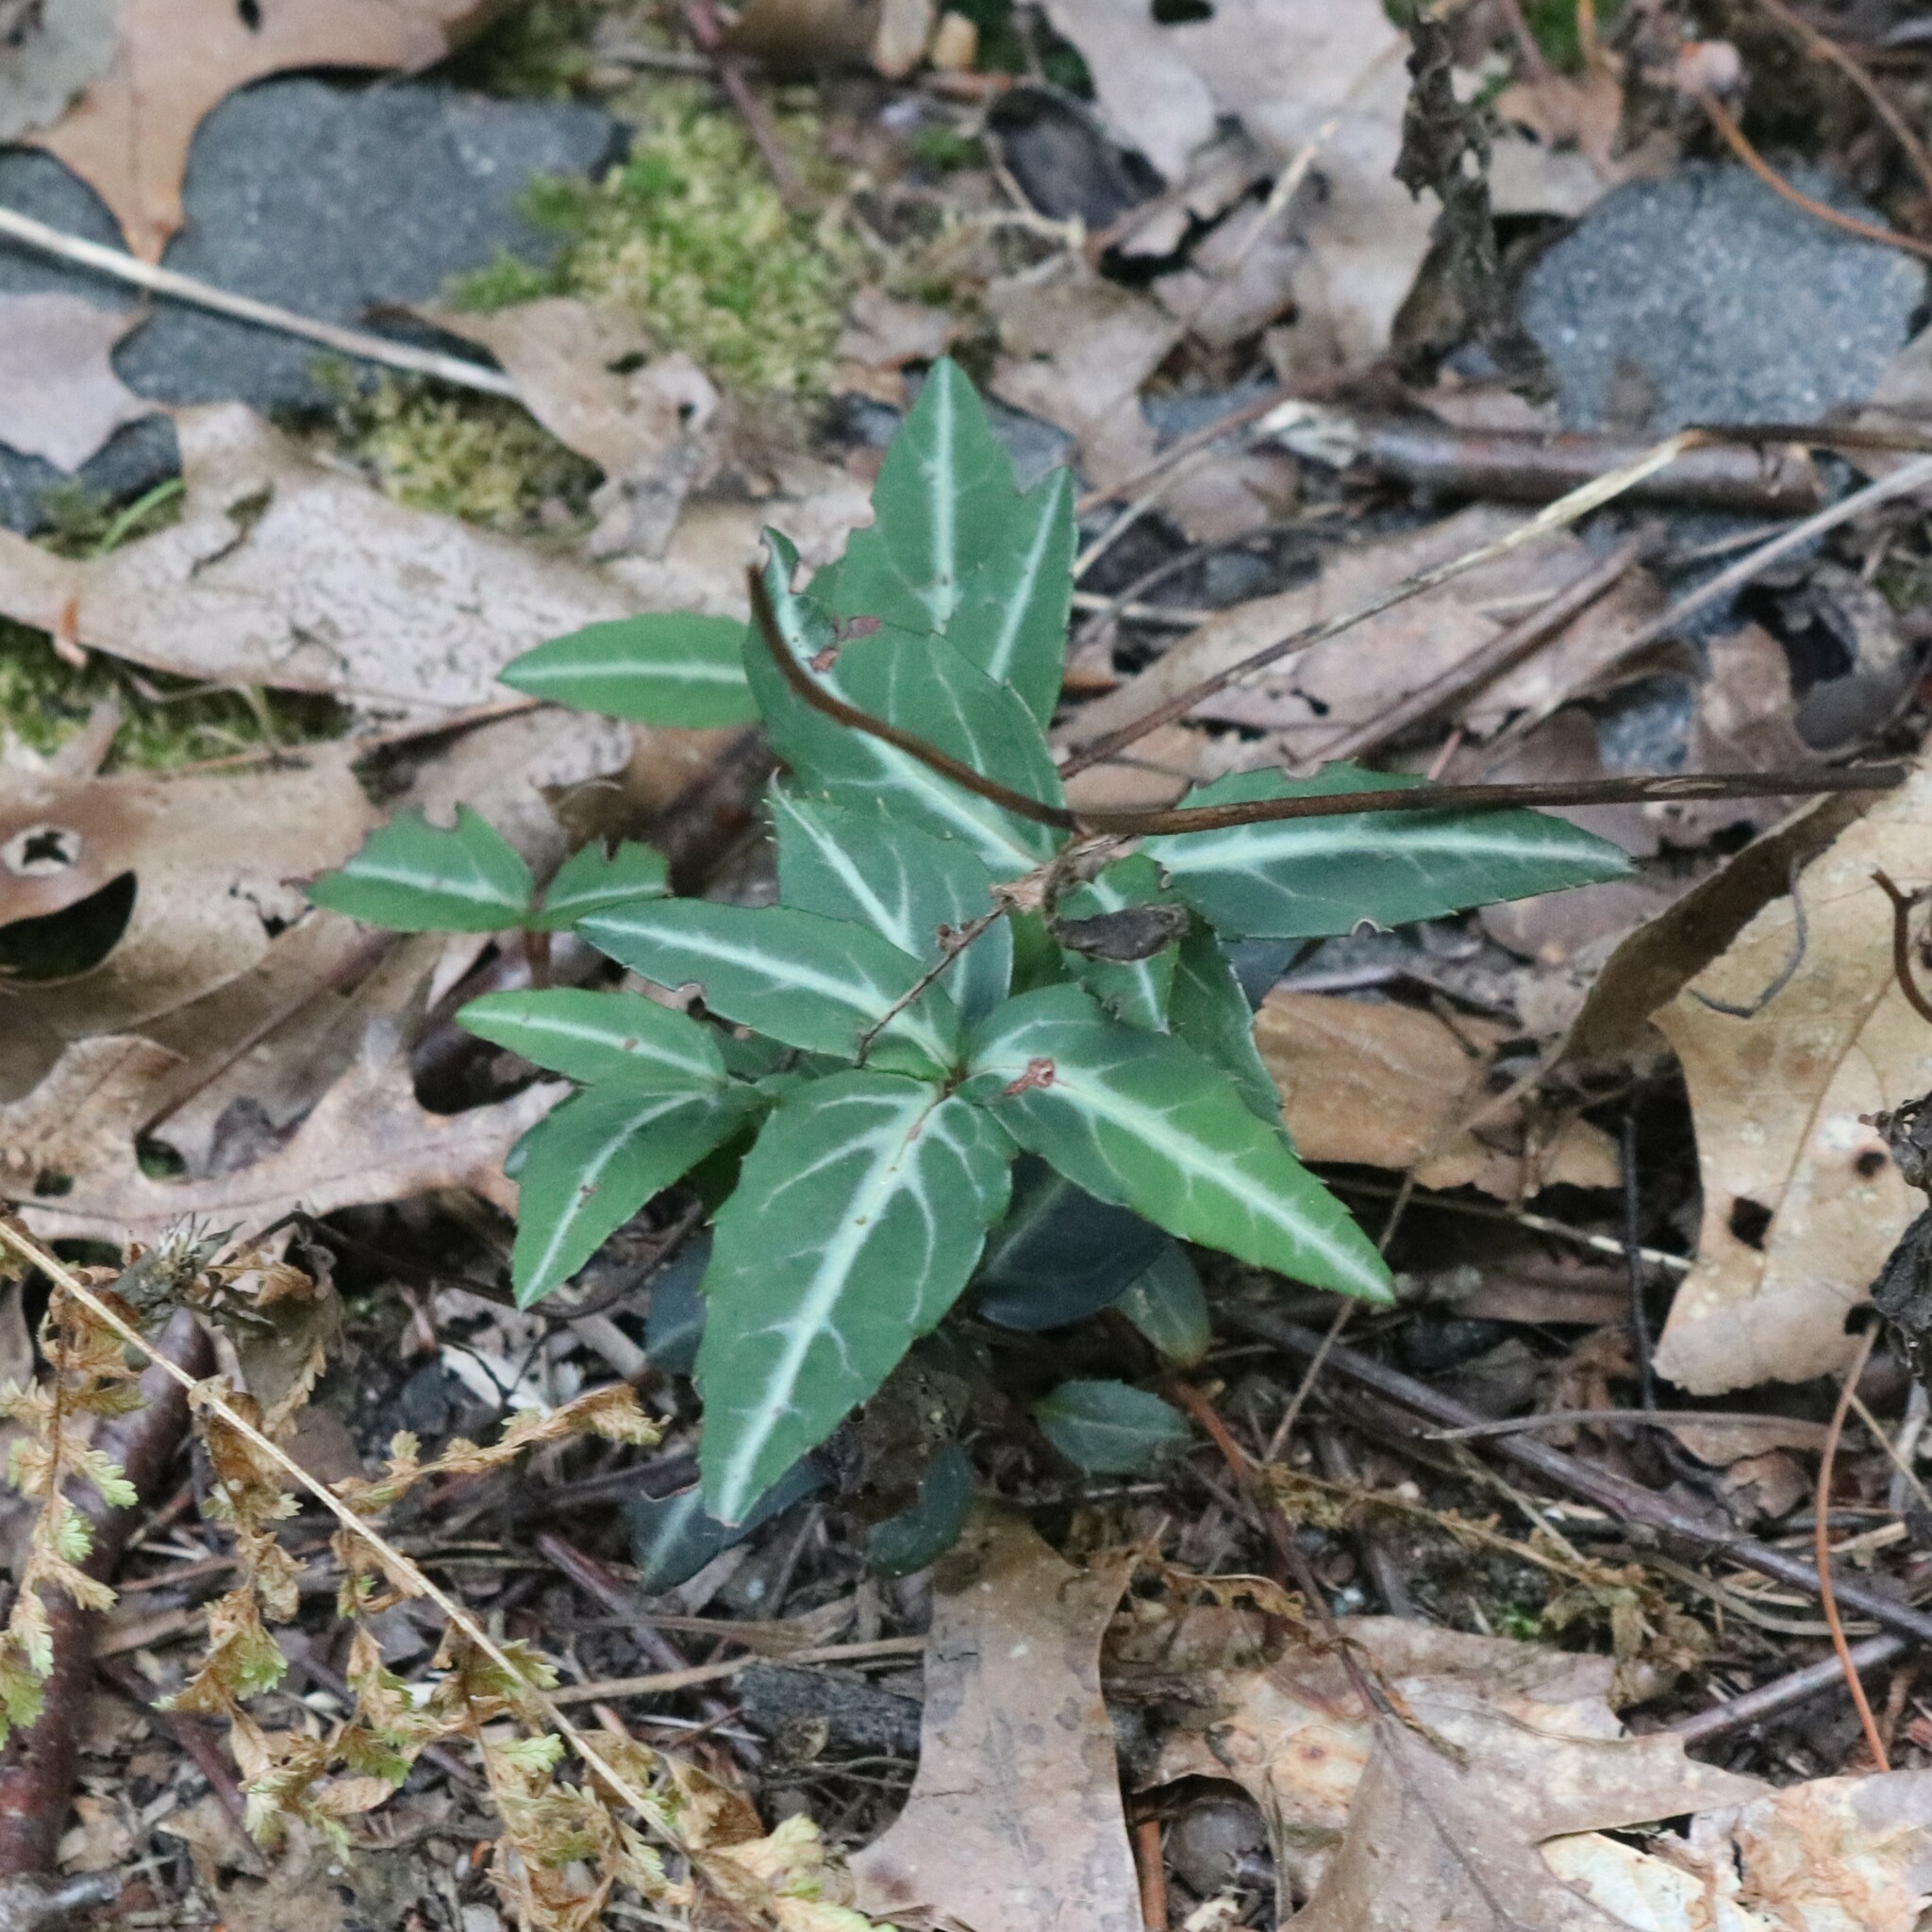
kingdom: Plantae
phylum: Tracheophyta
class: Magnoliopsida
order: Ericales
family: Ericaceae
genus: Chimaphila
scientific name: Chimaphila maculata
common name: Spotted pipsissewa
